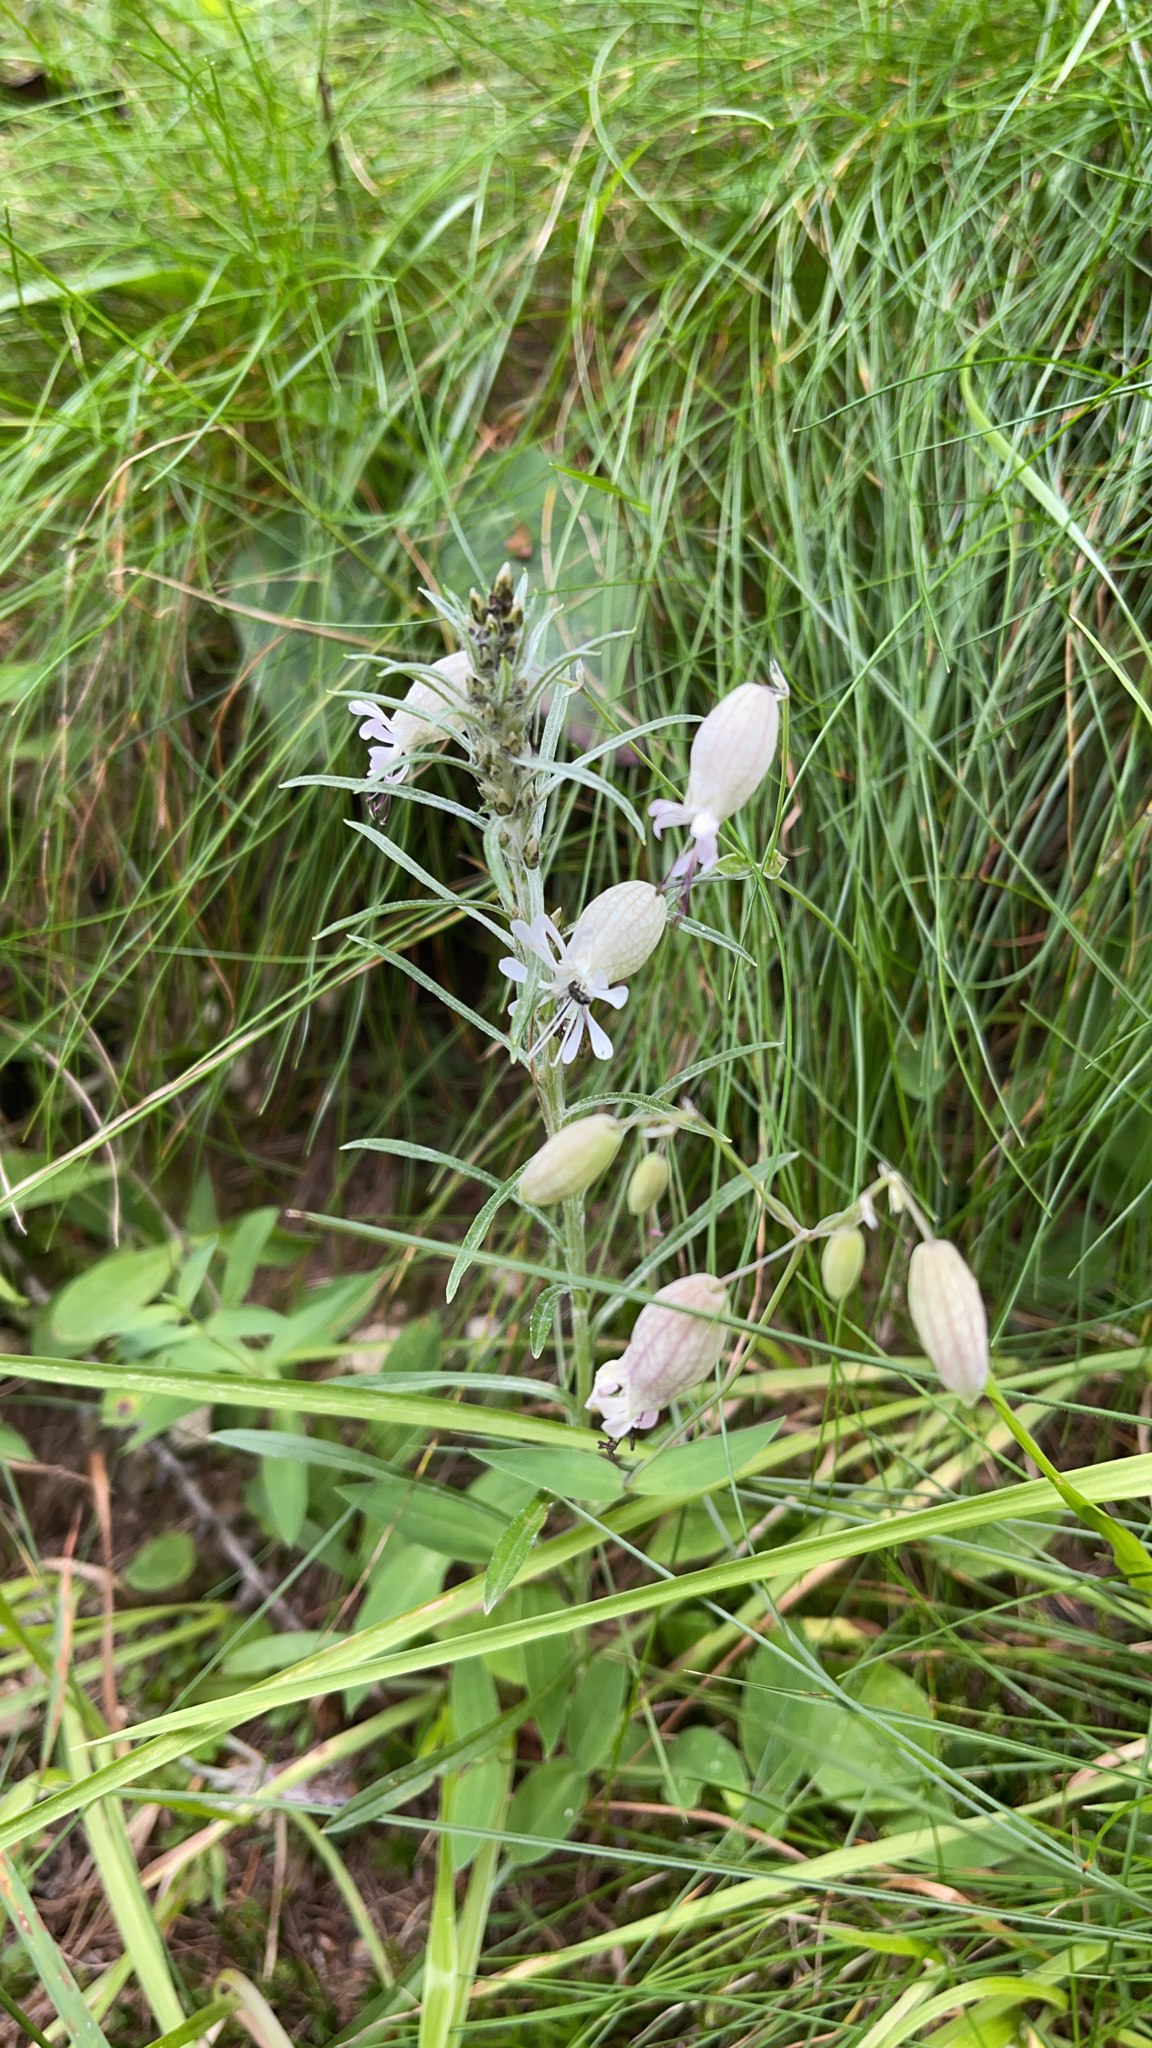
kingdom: Plantae
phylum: Tracheophyta
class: Magnoliopsida
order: Caryophyllales
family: Caryophyllaceae
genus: Silene
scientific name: Silene vulgaris
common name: Bladder campion
